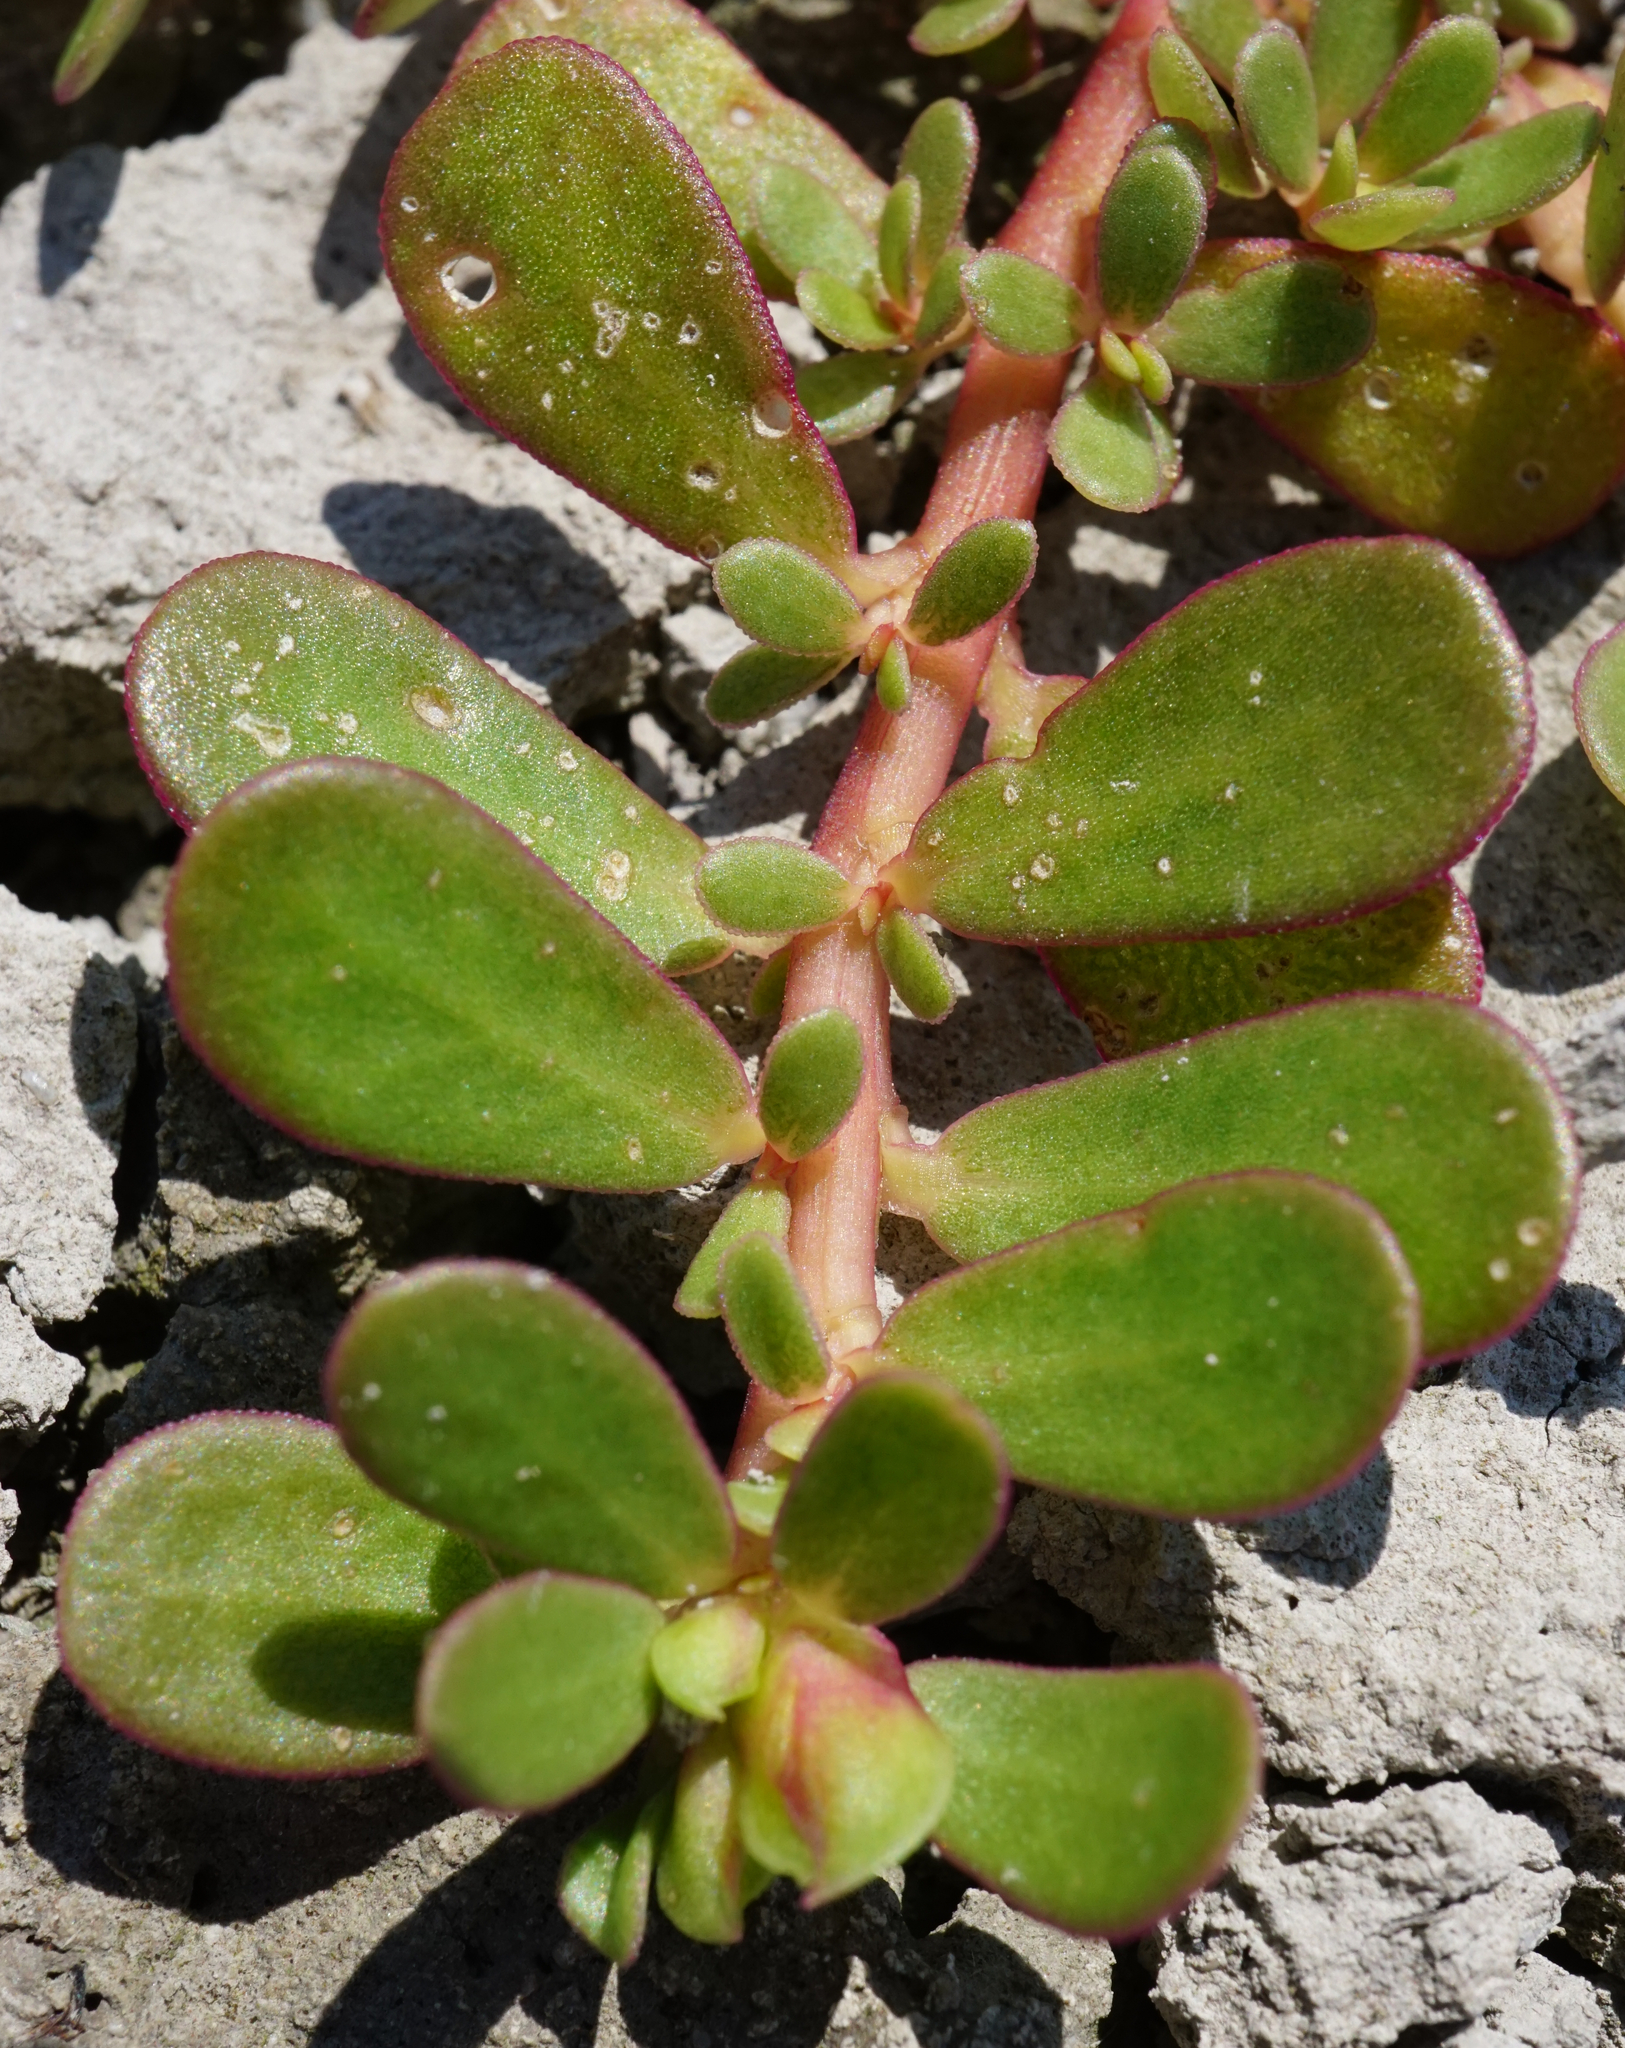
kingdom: Plantae
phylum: Tracheophyta
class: Magnoliopsida
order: Caryophyllales
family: Portulacaceae
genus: Portulaca
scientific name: Portulaca oleracea
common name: Common purslane
